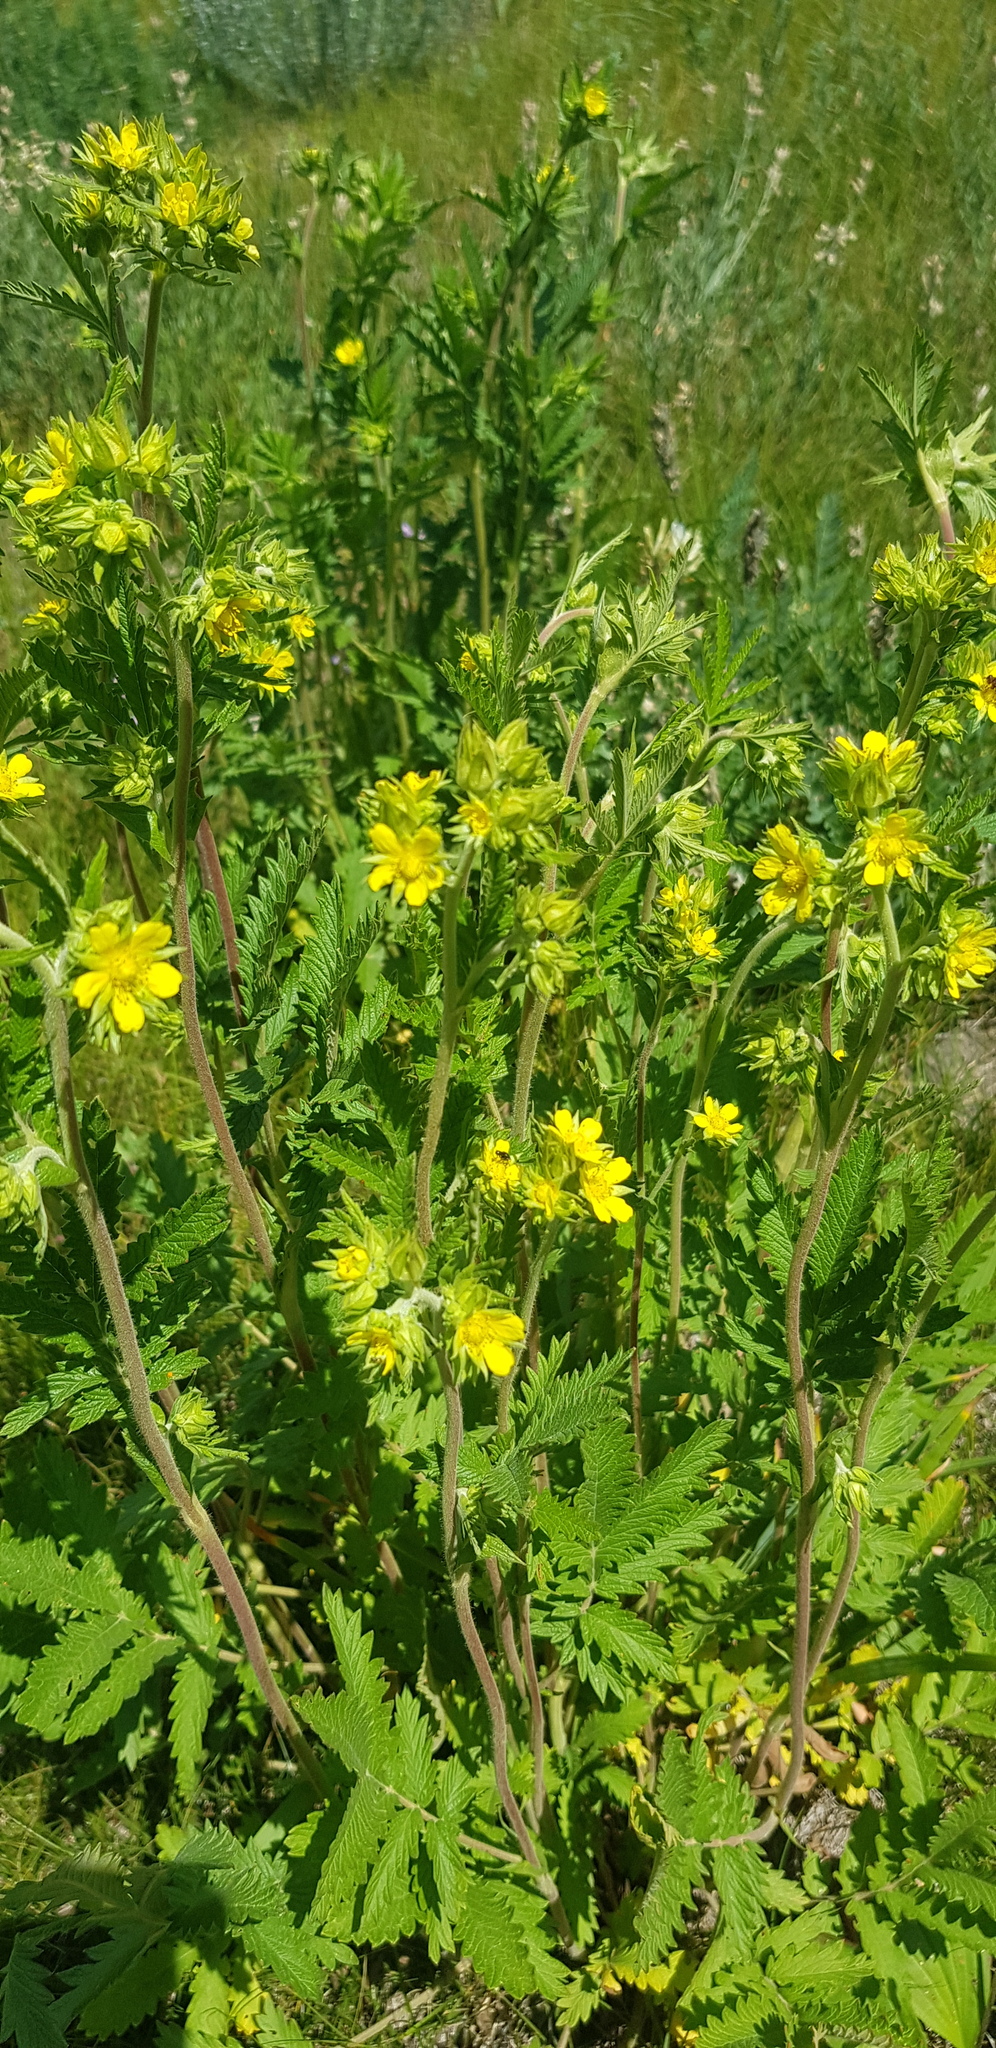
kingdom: Plantae
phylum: Tracheophyta
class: Magnoliopsida
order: Rosales
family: Rosaceae
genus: Potentilla
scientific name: Potentilla tanacetifolia
